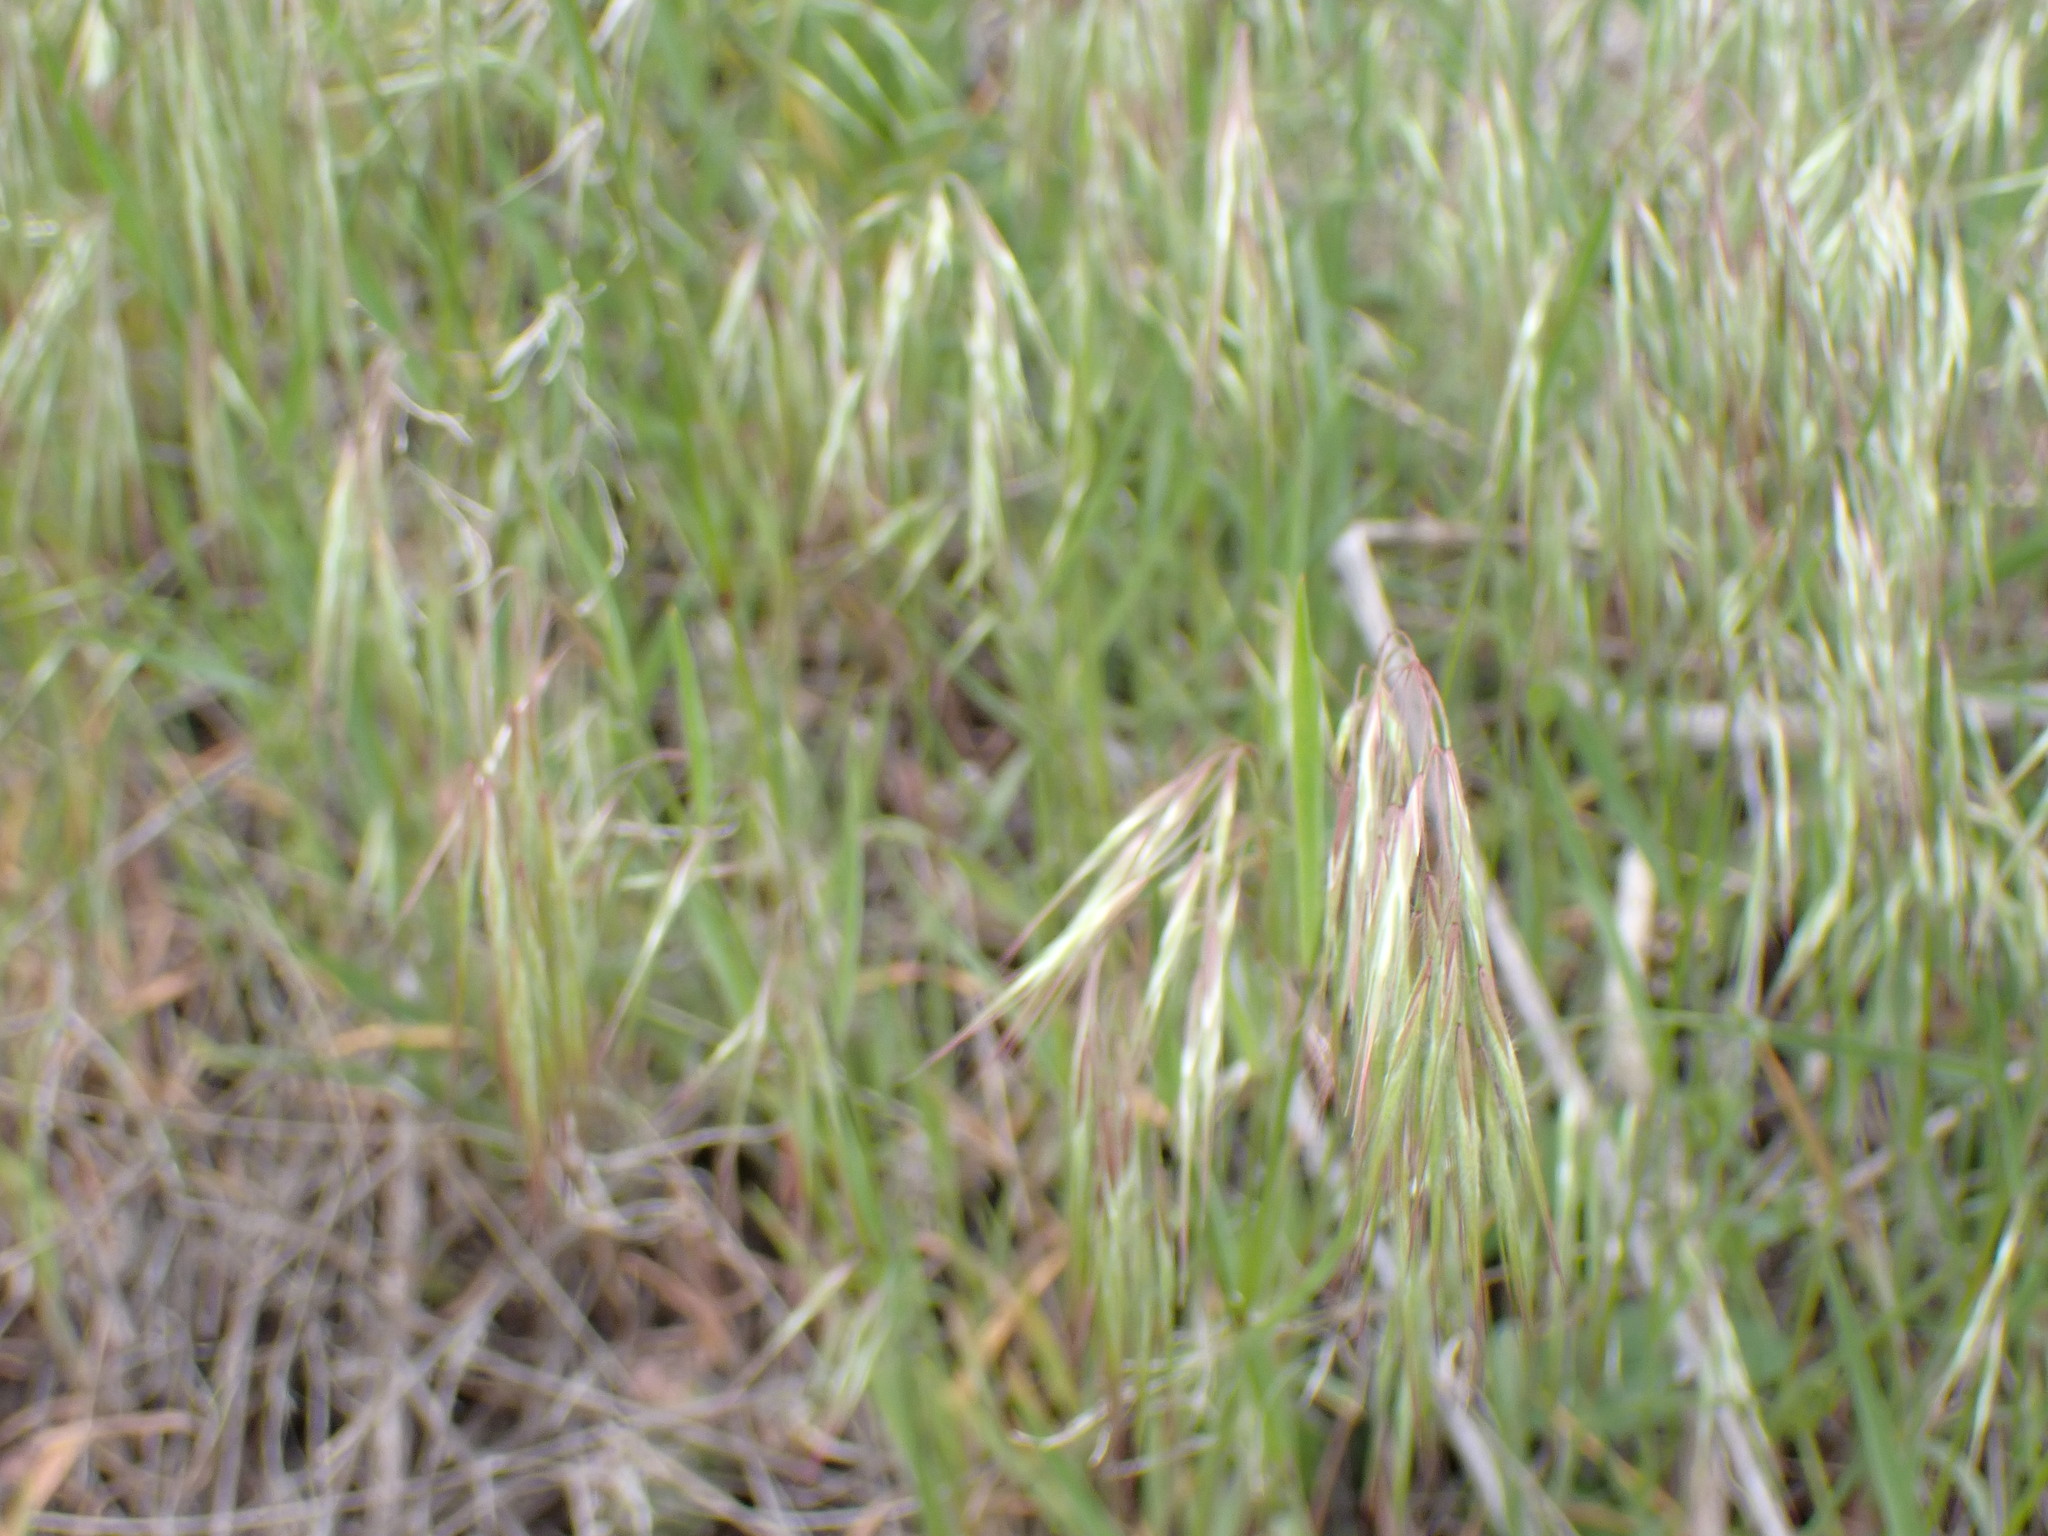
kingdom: Plantae
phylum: Tracheophyta
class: Liliopsida
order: Poales
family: Poaceae
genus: Bromus
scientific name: Bromus tectorum
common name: Cheatgrass
